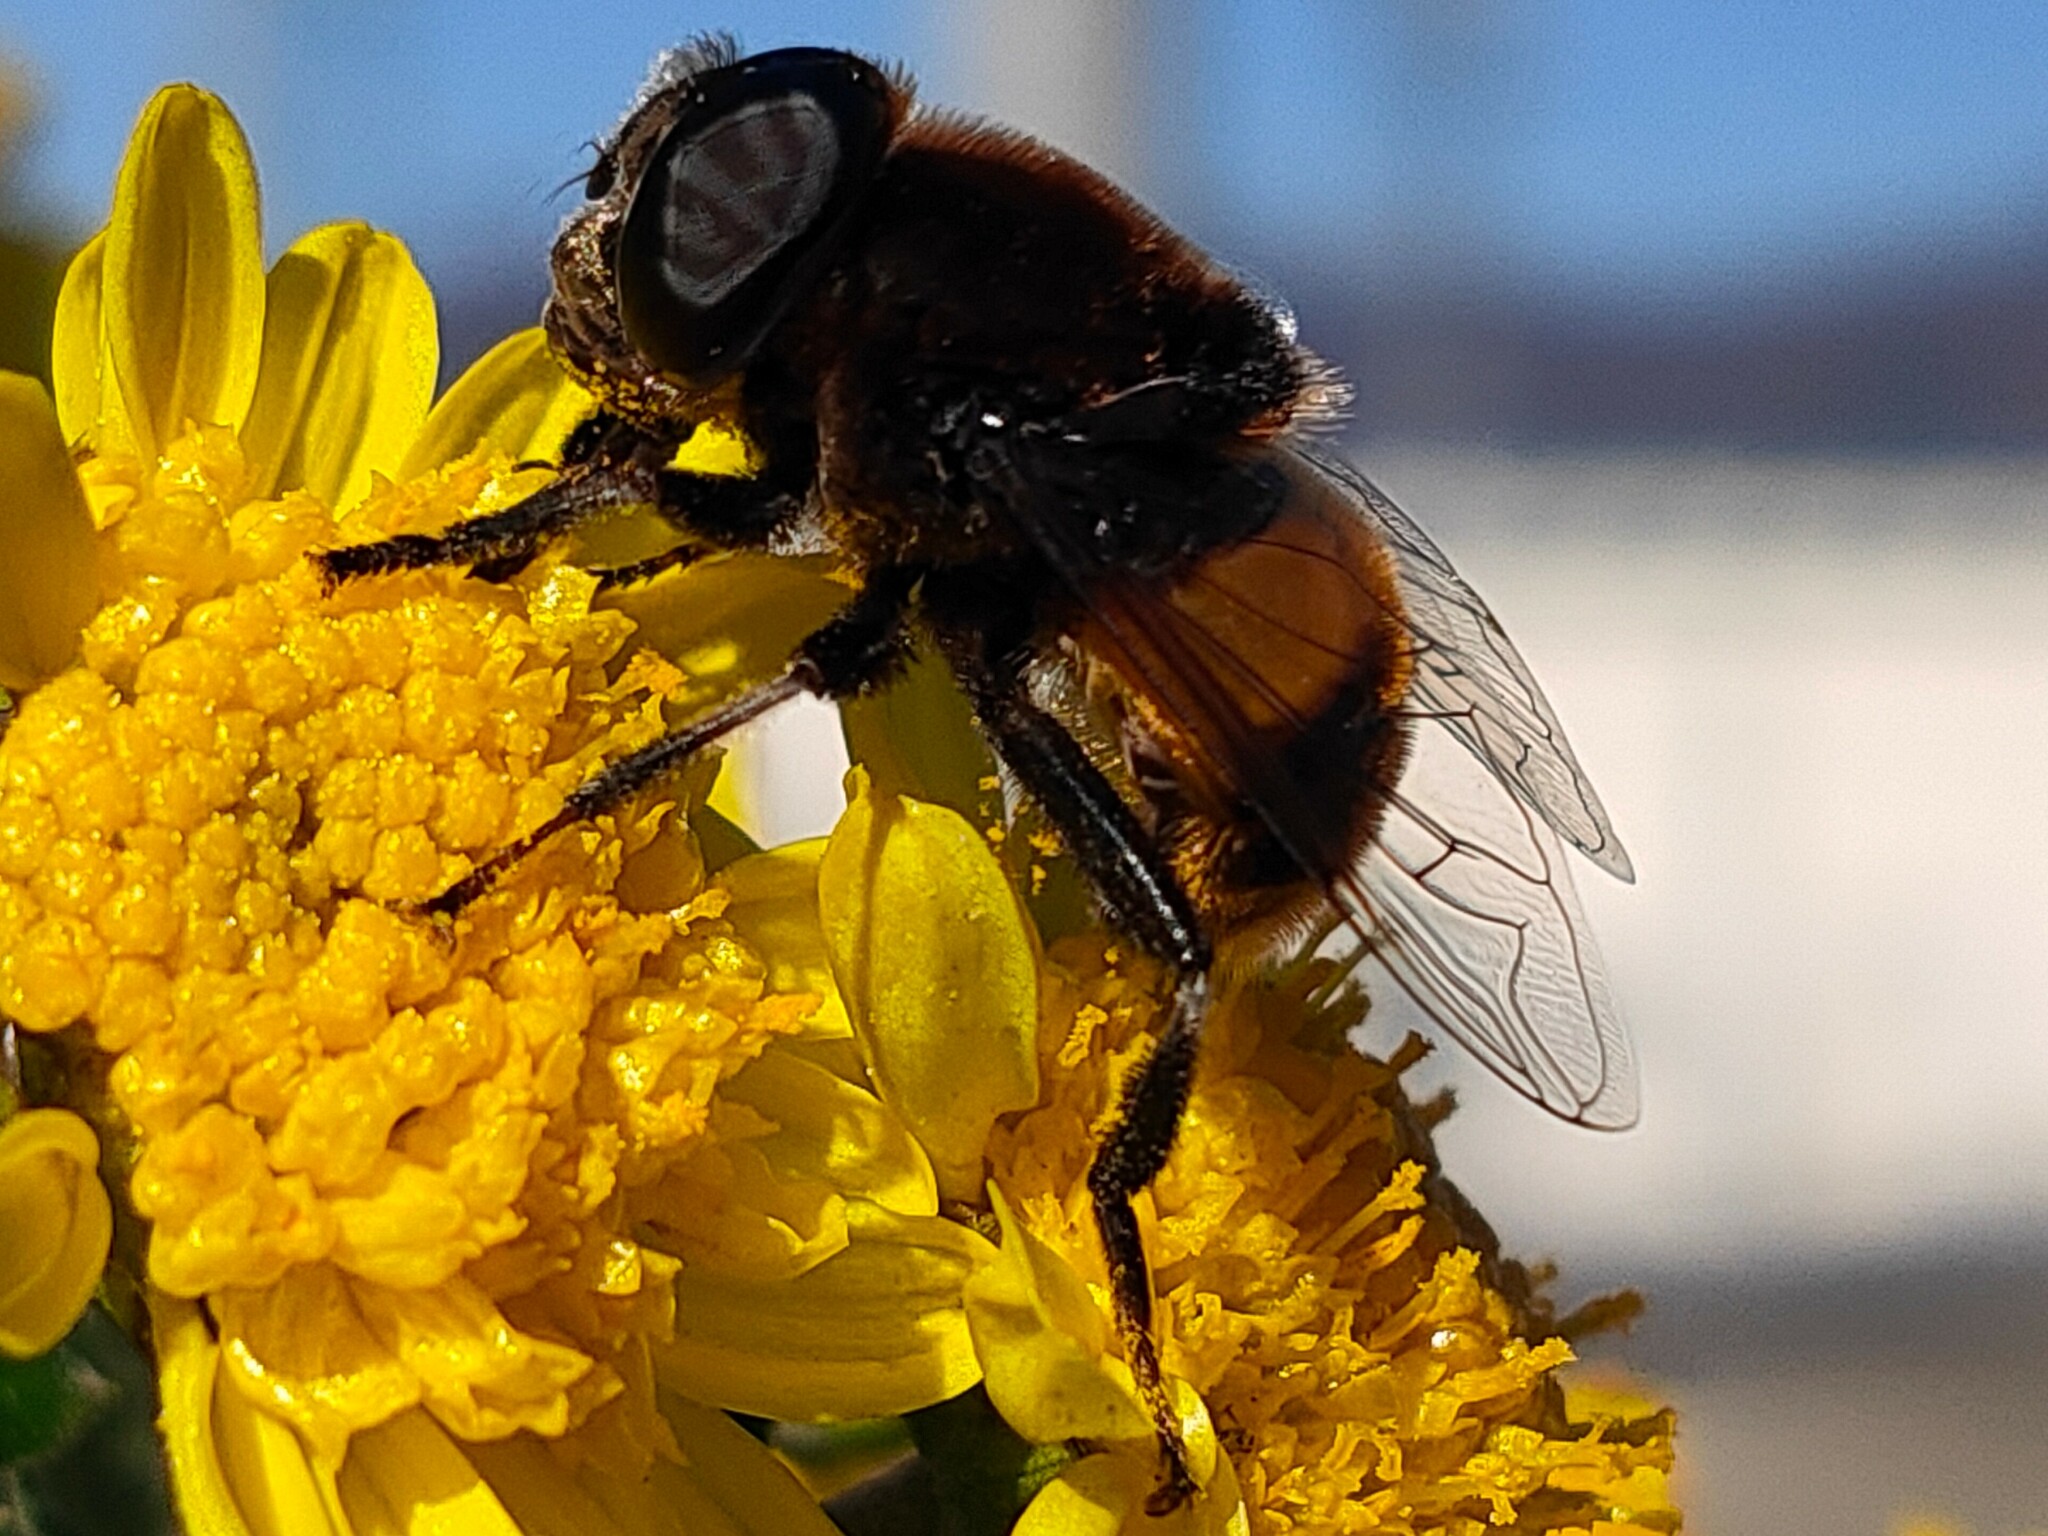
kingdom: Animalia
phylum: Arthropoda
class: Insecta
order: Diptera
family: Syrphidae
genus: Phytomia
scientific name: Phytomia zonata
